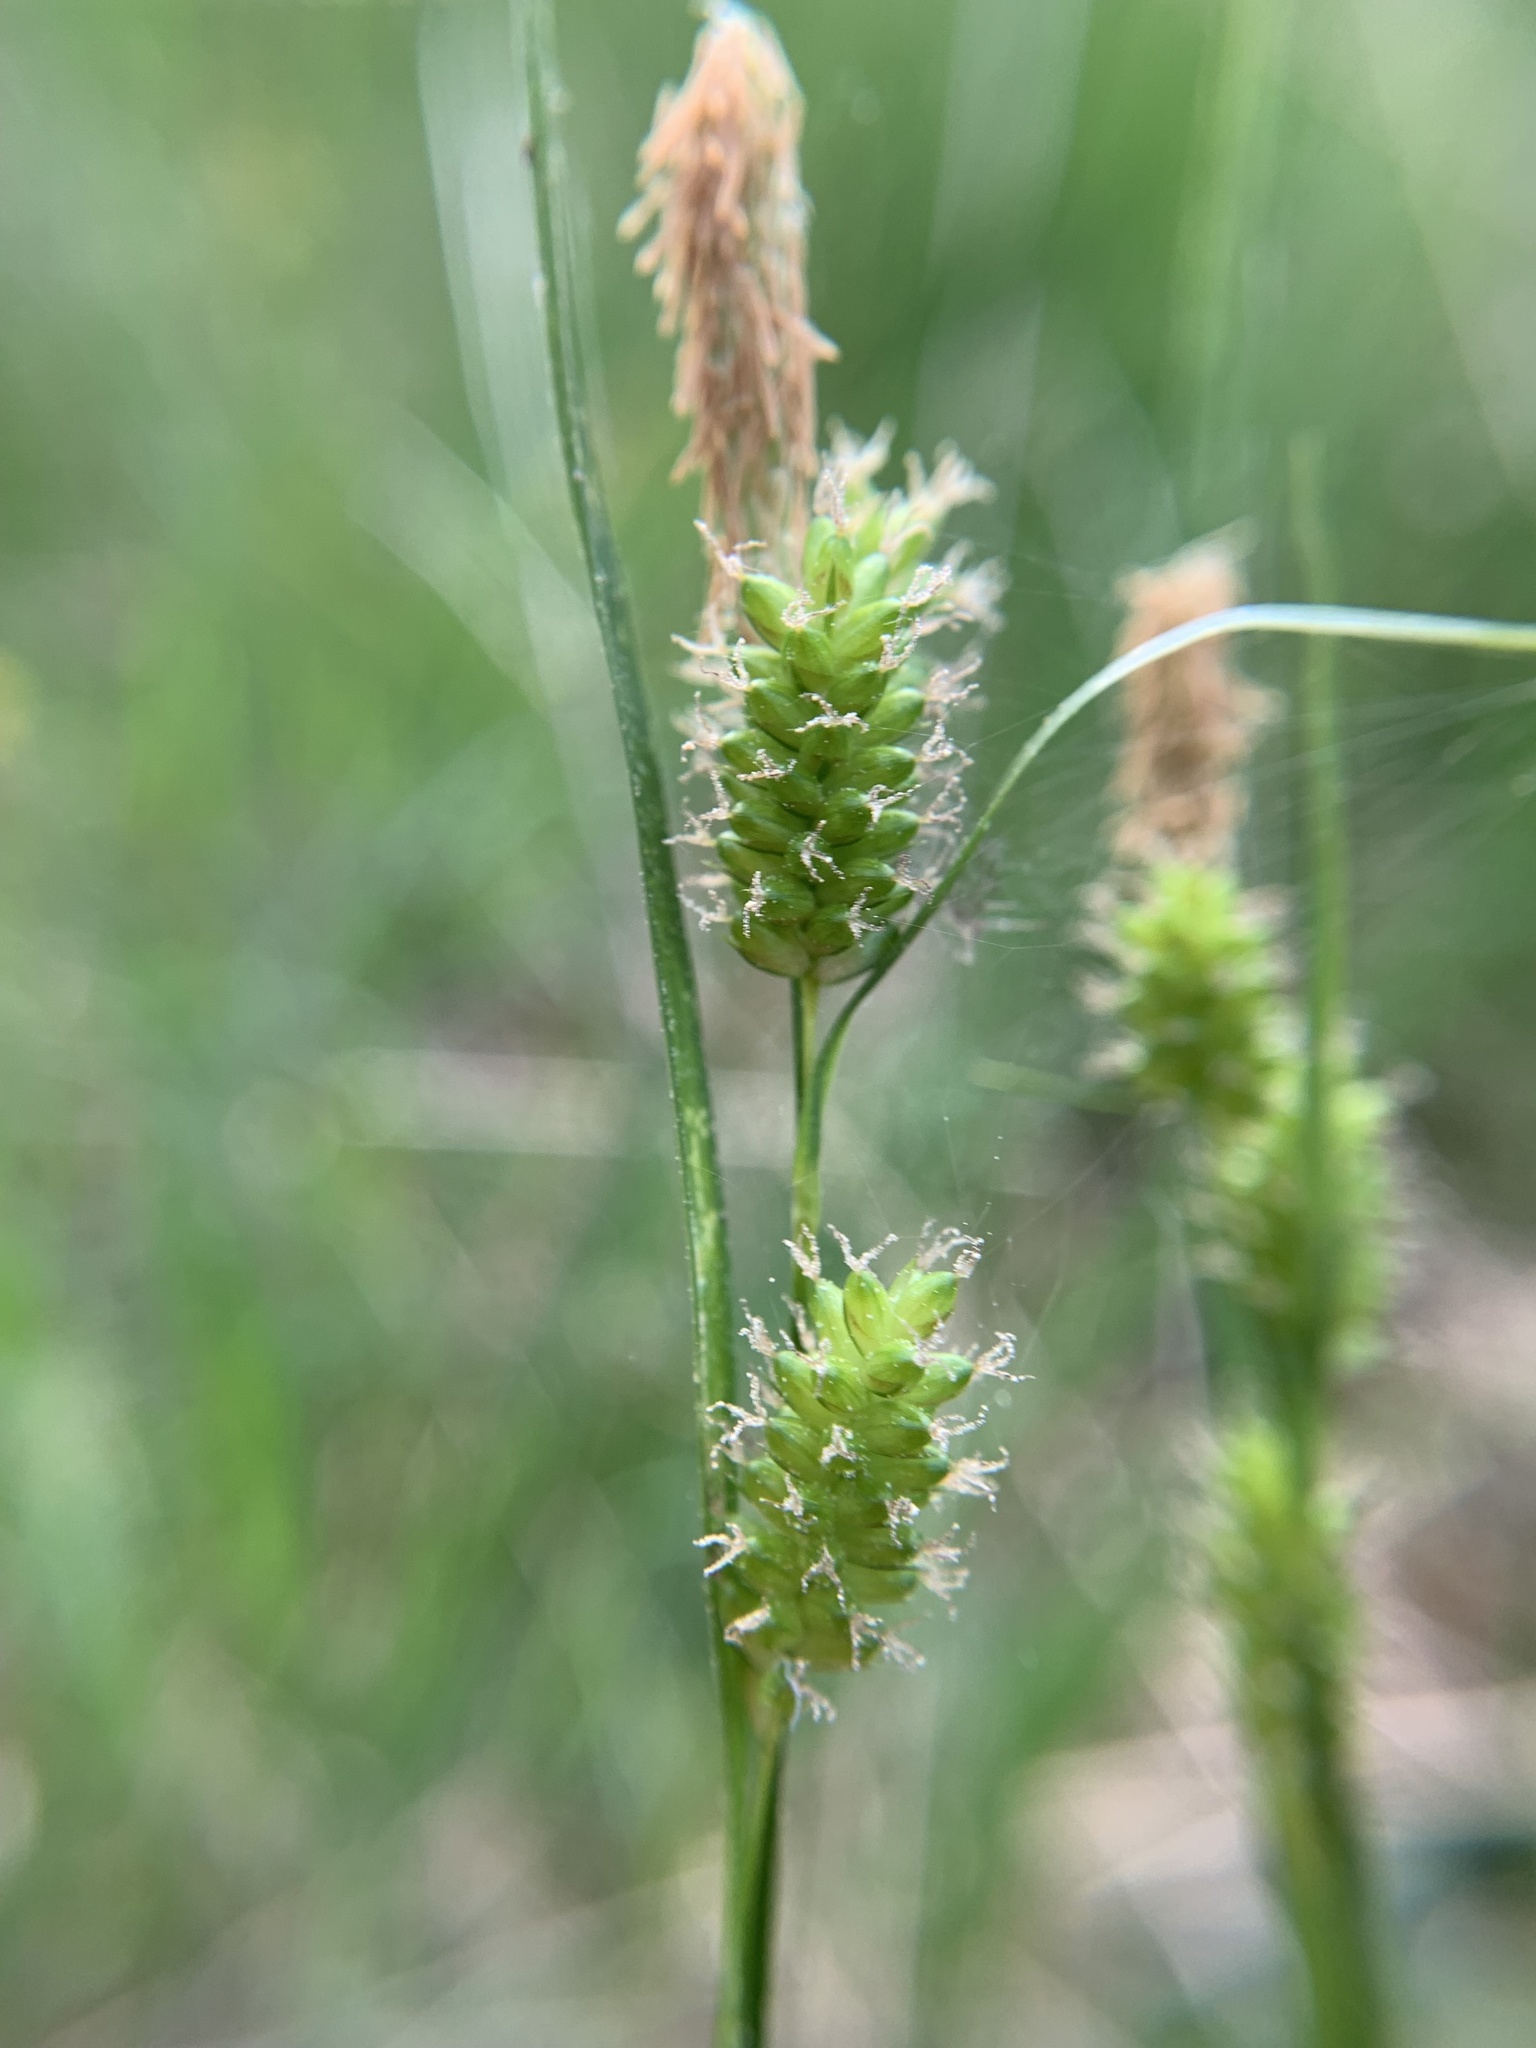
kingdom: Plantae
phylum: Tracheophyta
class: Liliopsida
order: Poales
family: Cyperaceae
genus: Carex
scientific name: Carex pallescens
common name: Pale sedge
